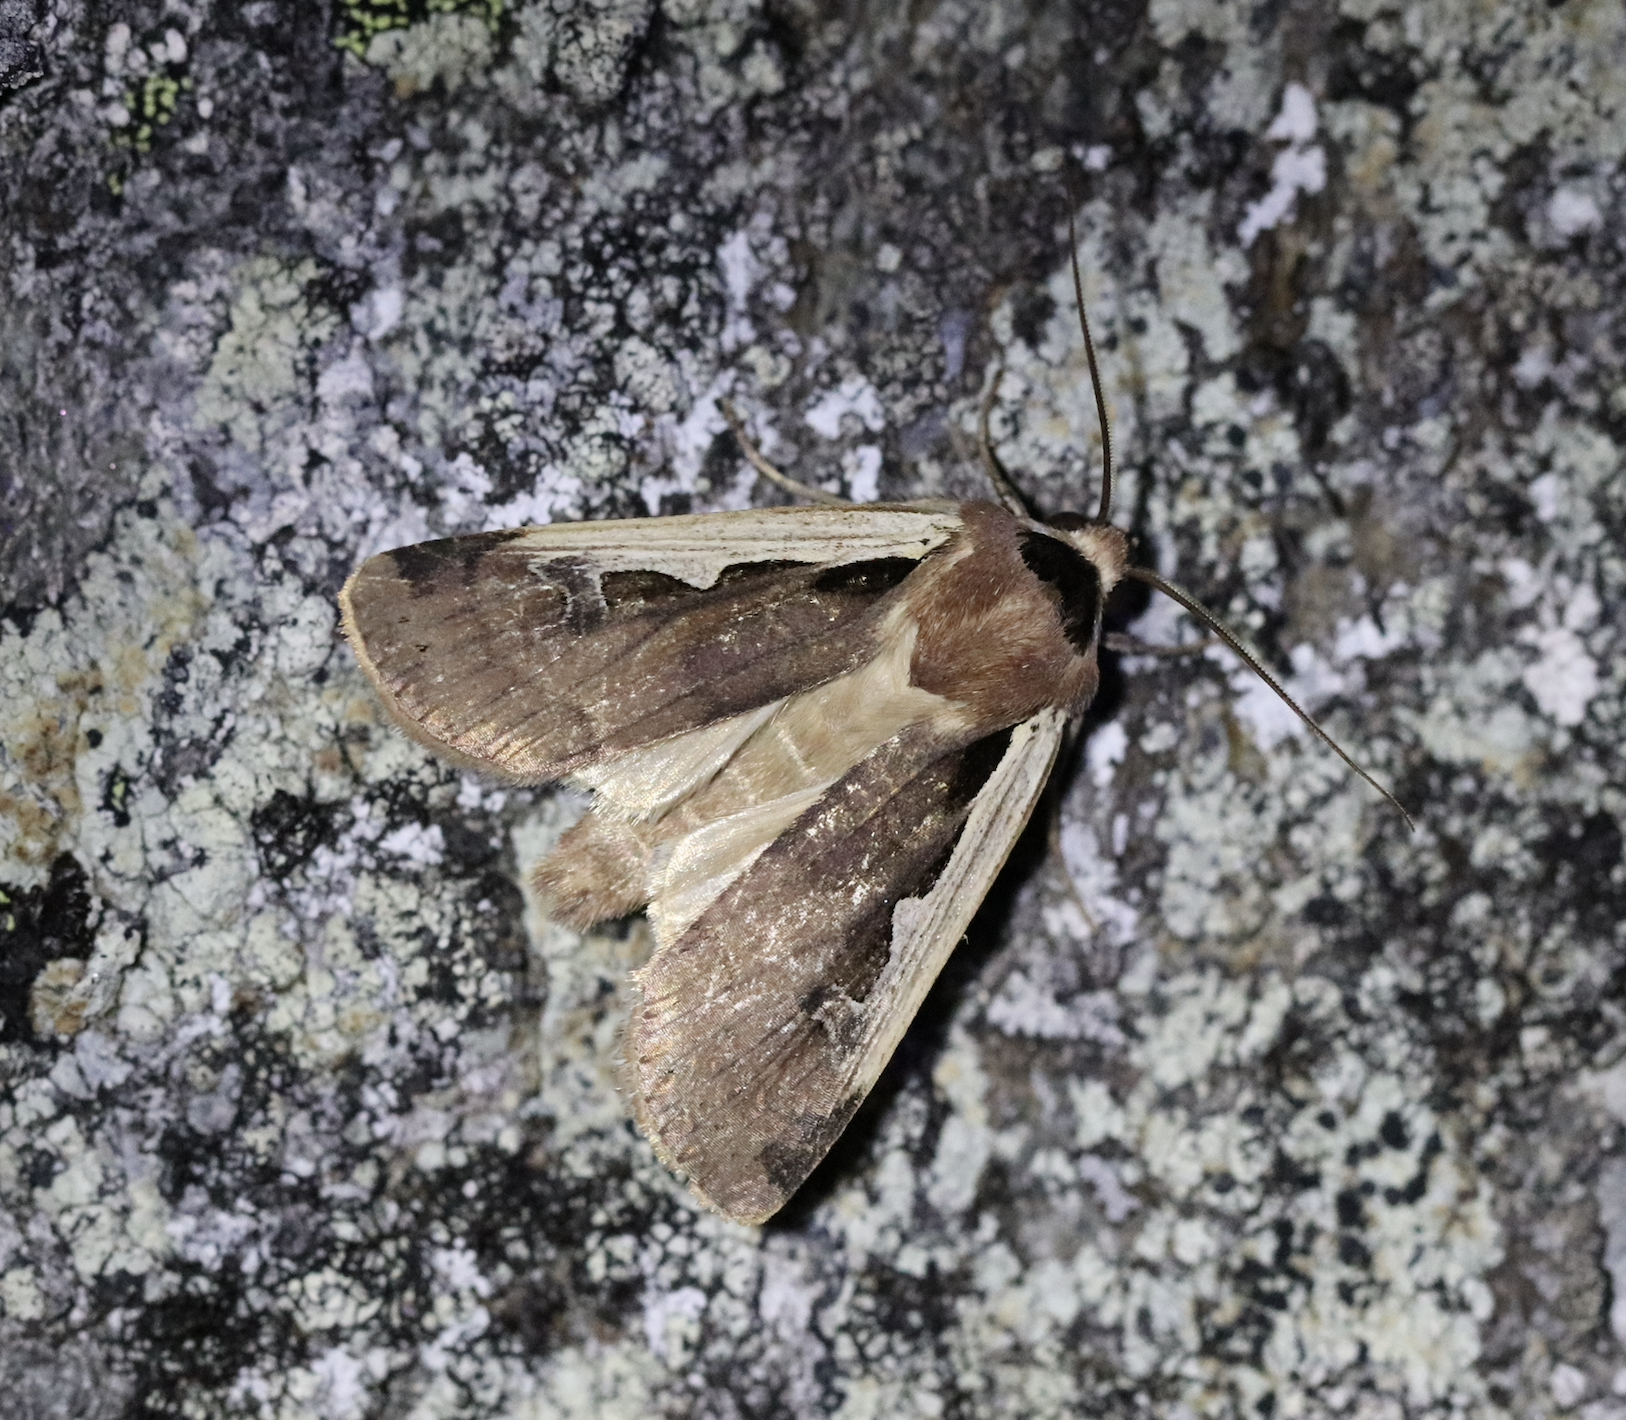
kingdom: Animalia
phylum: Arthropoda
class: Insecta
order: Lepidoptera
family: Noctuidae
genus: Dichagyris
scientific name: Dichagyris musiva
